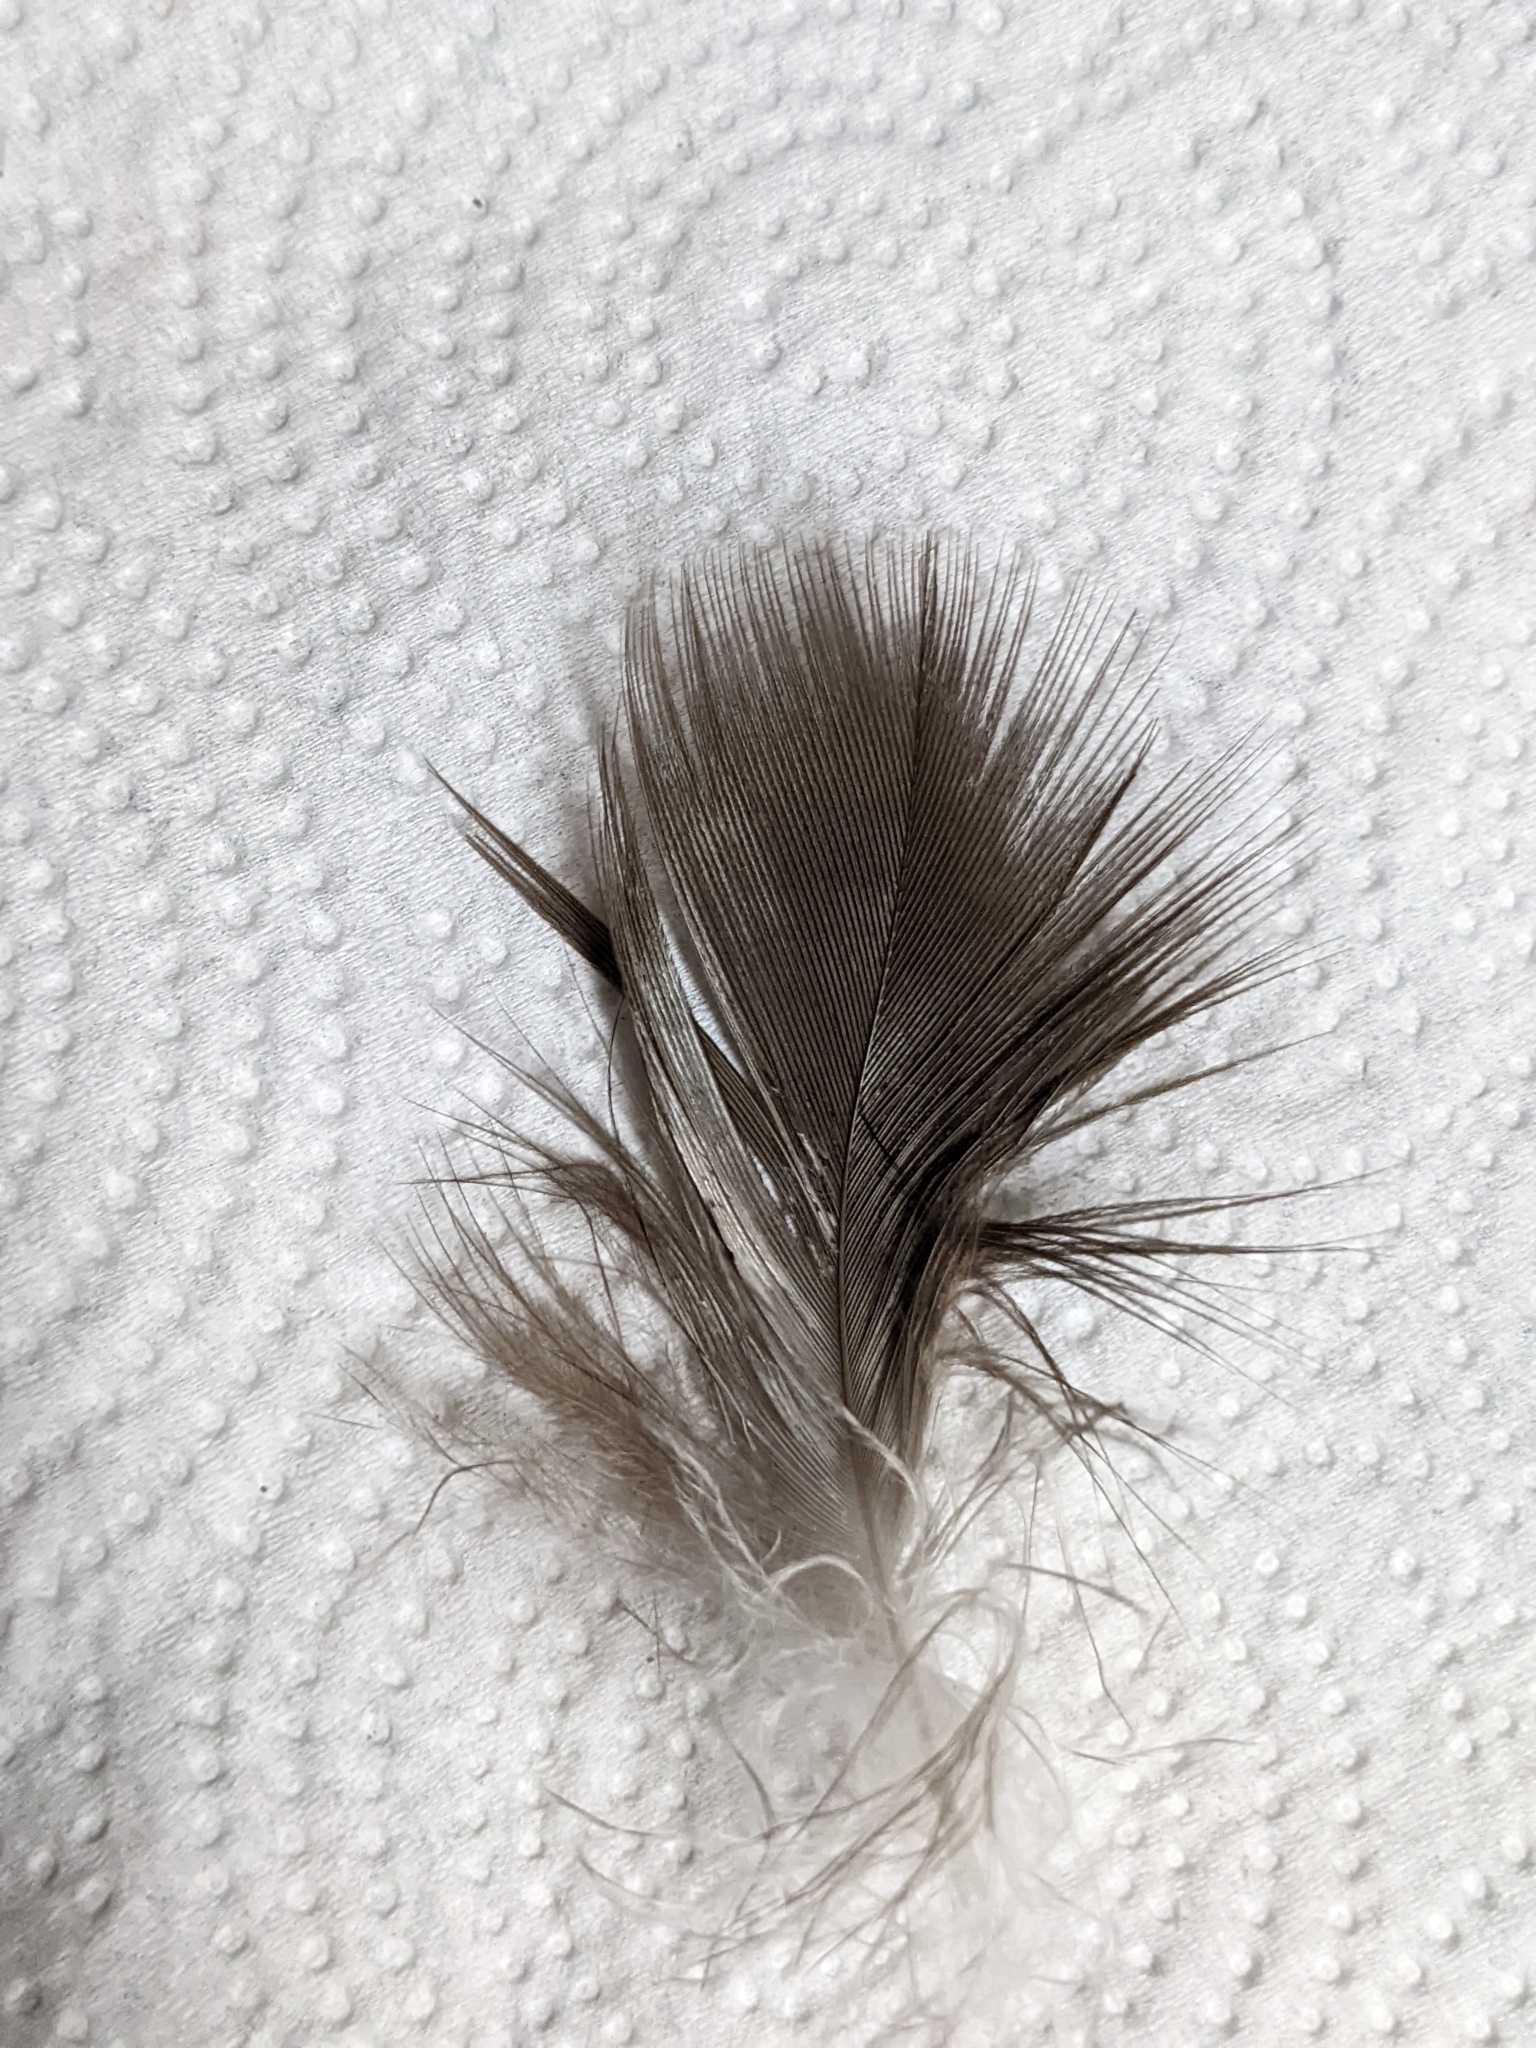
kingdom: Animalia
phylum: Chordata
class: Aves
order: Accipitriformes
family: Cathartidae
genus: Cathartes
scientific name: Cathartes aura
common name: Turkey vulture
